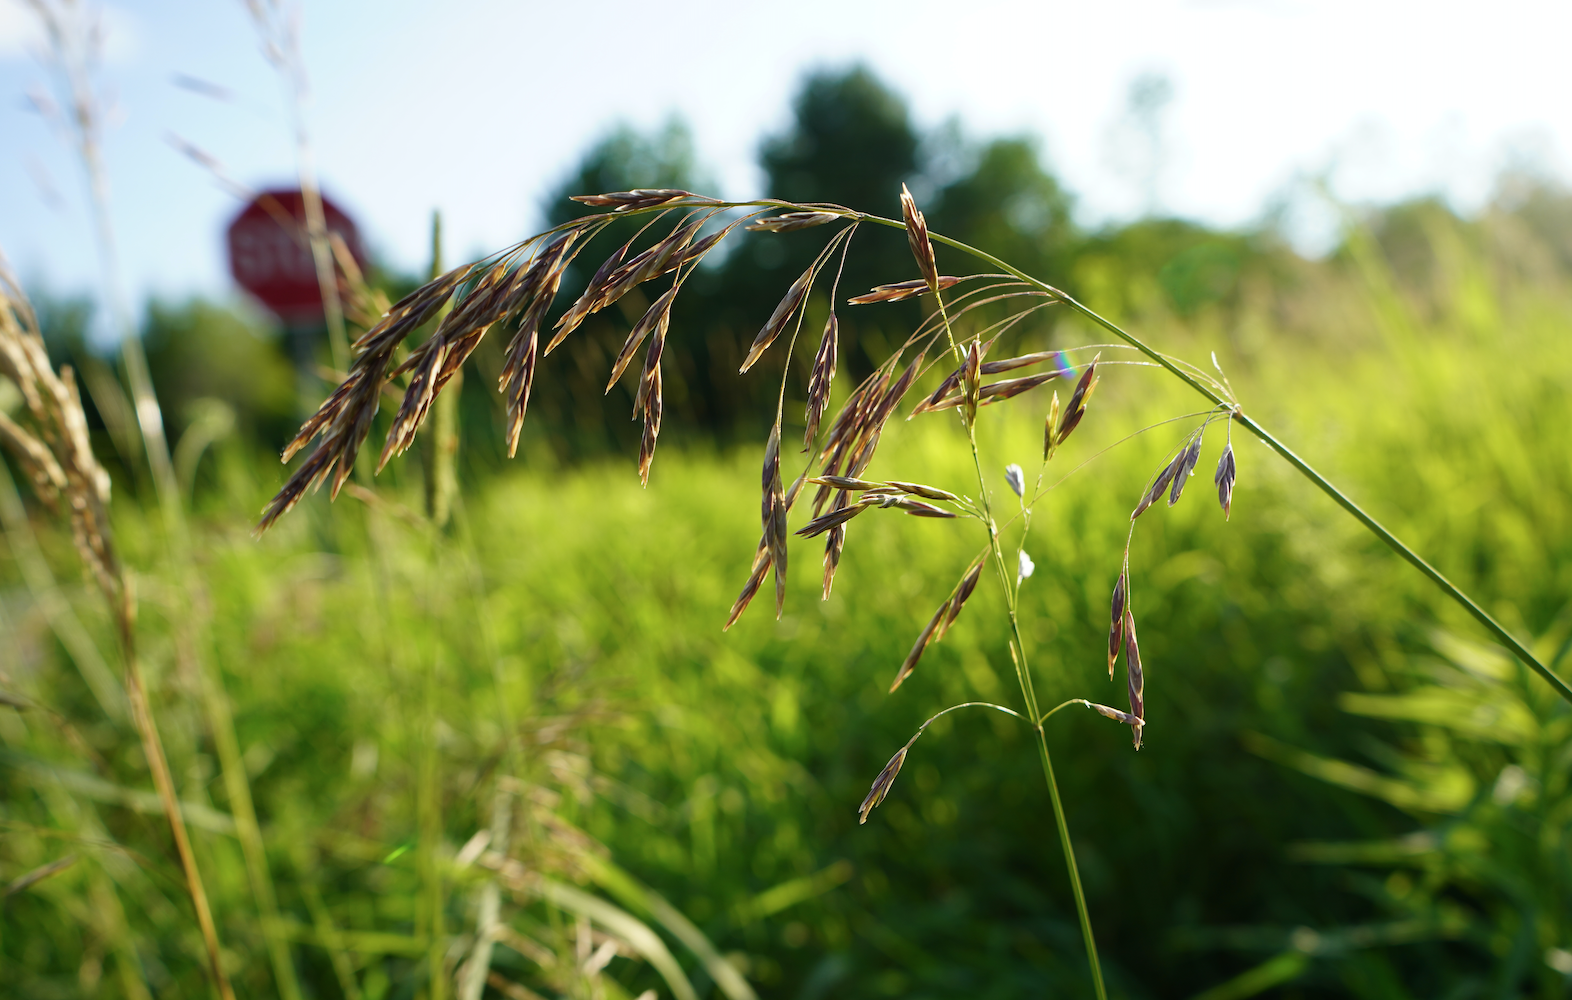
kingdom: Plantae
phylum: Tracheophyta
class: Liliopsida
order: Poales
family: Poaceae
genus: Bromus
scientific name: Bromus inermis
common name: Smooth brome
